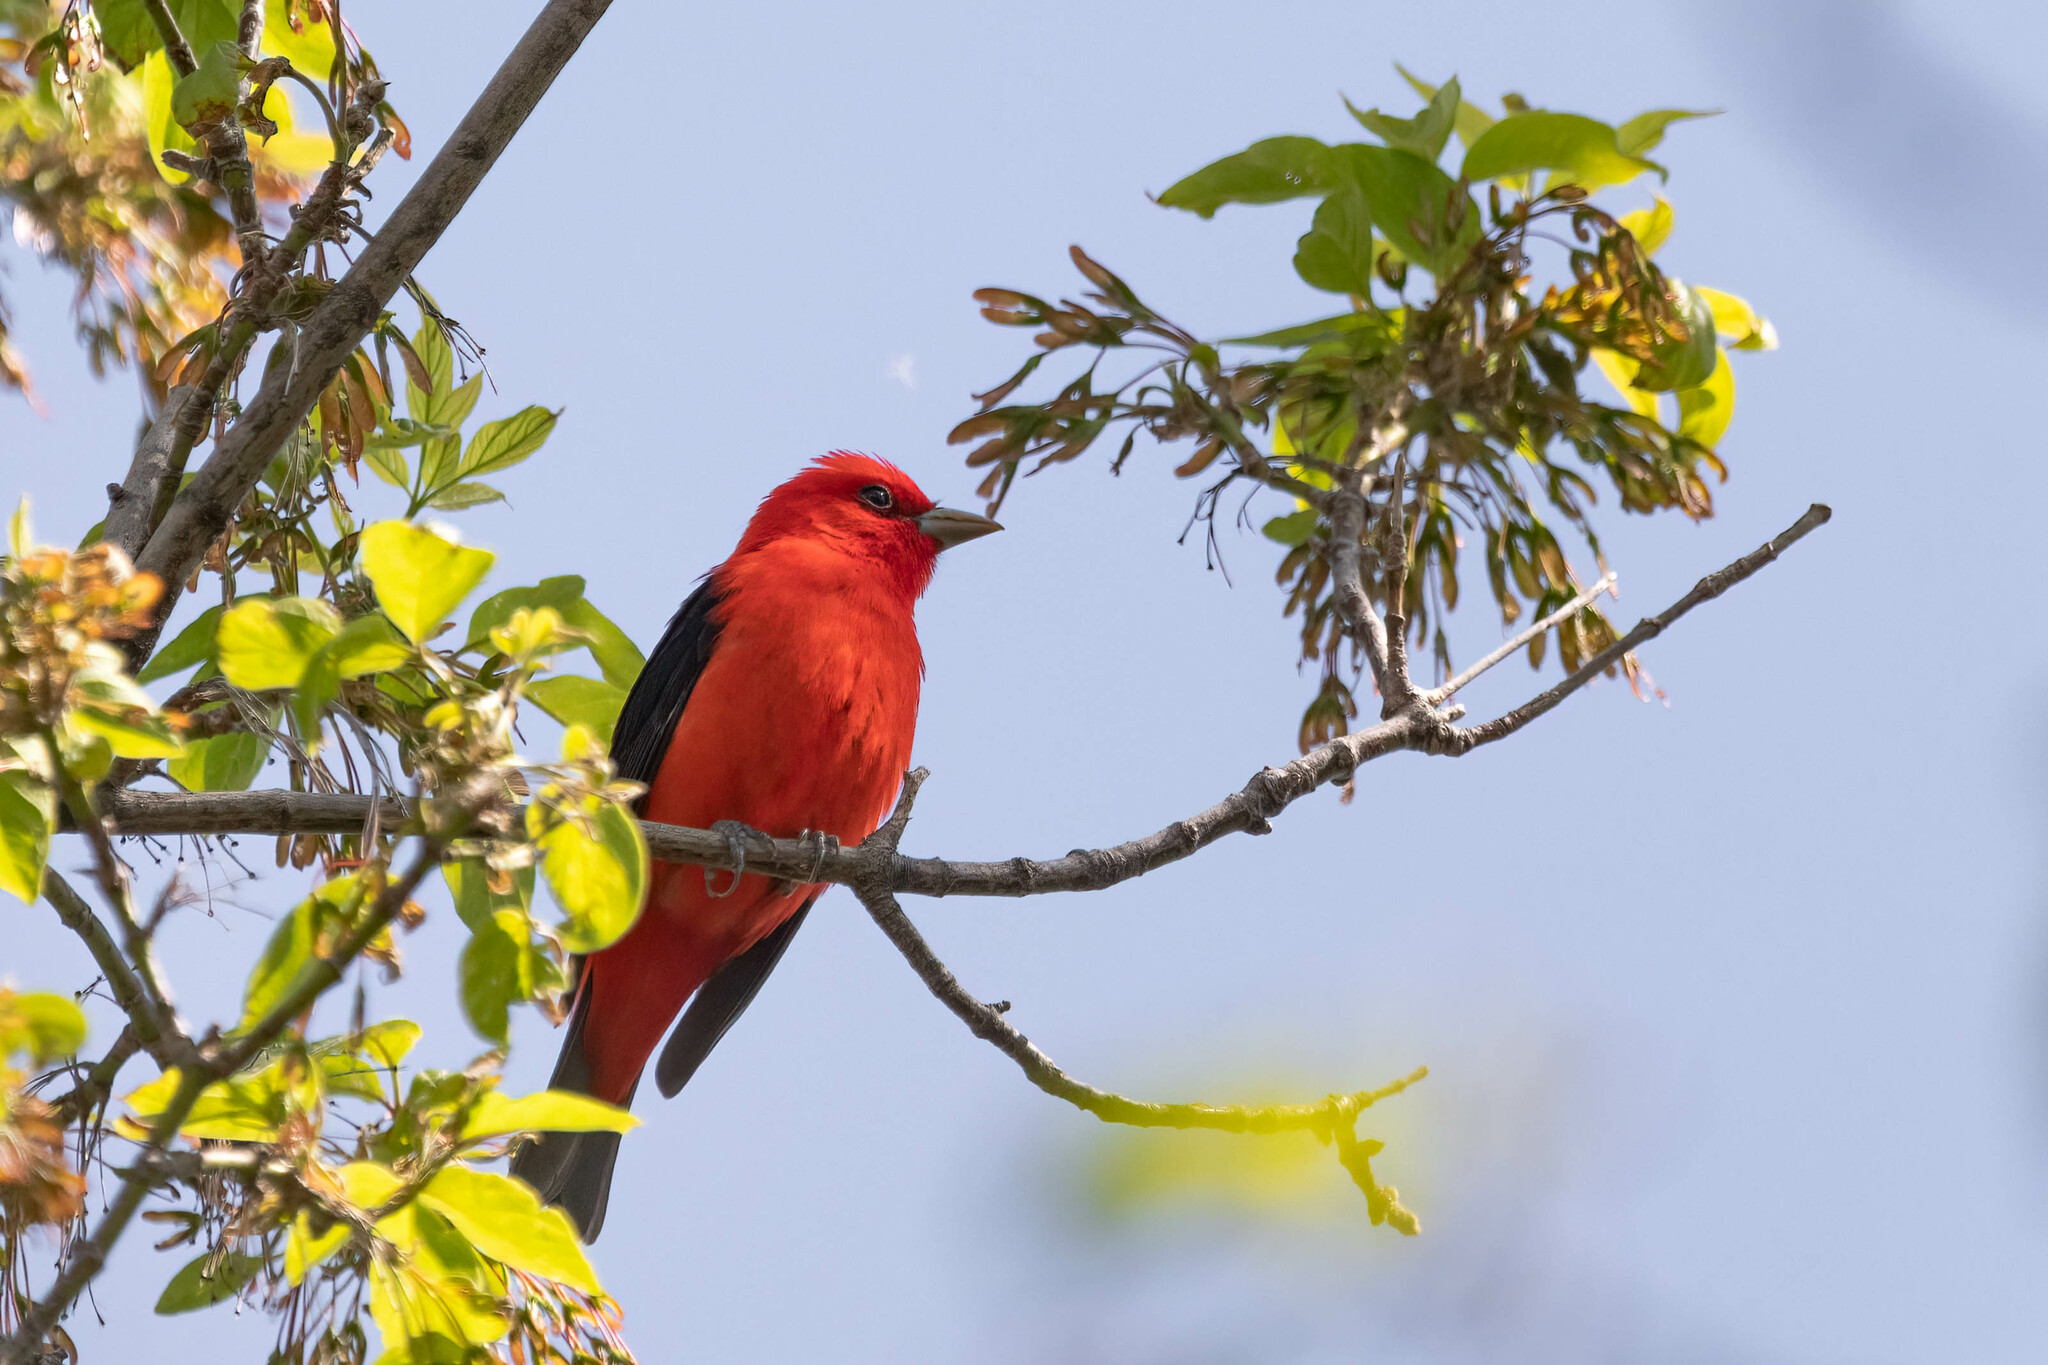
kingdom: Animalia
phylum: Chordata
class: Aves
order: Passeriformes
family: Cardinalidae
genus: Piranga
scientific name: Piranga olivacea
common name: Scarlet tanager
